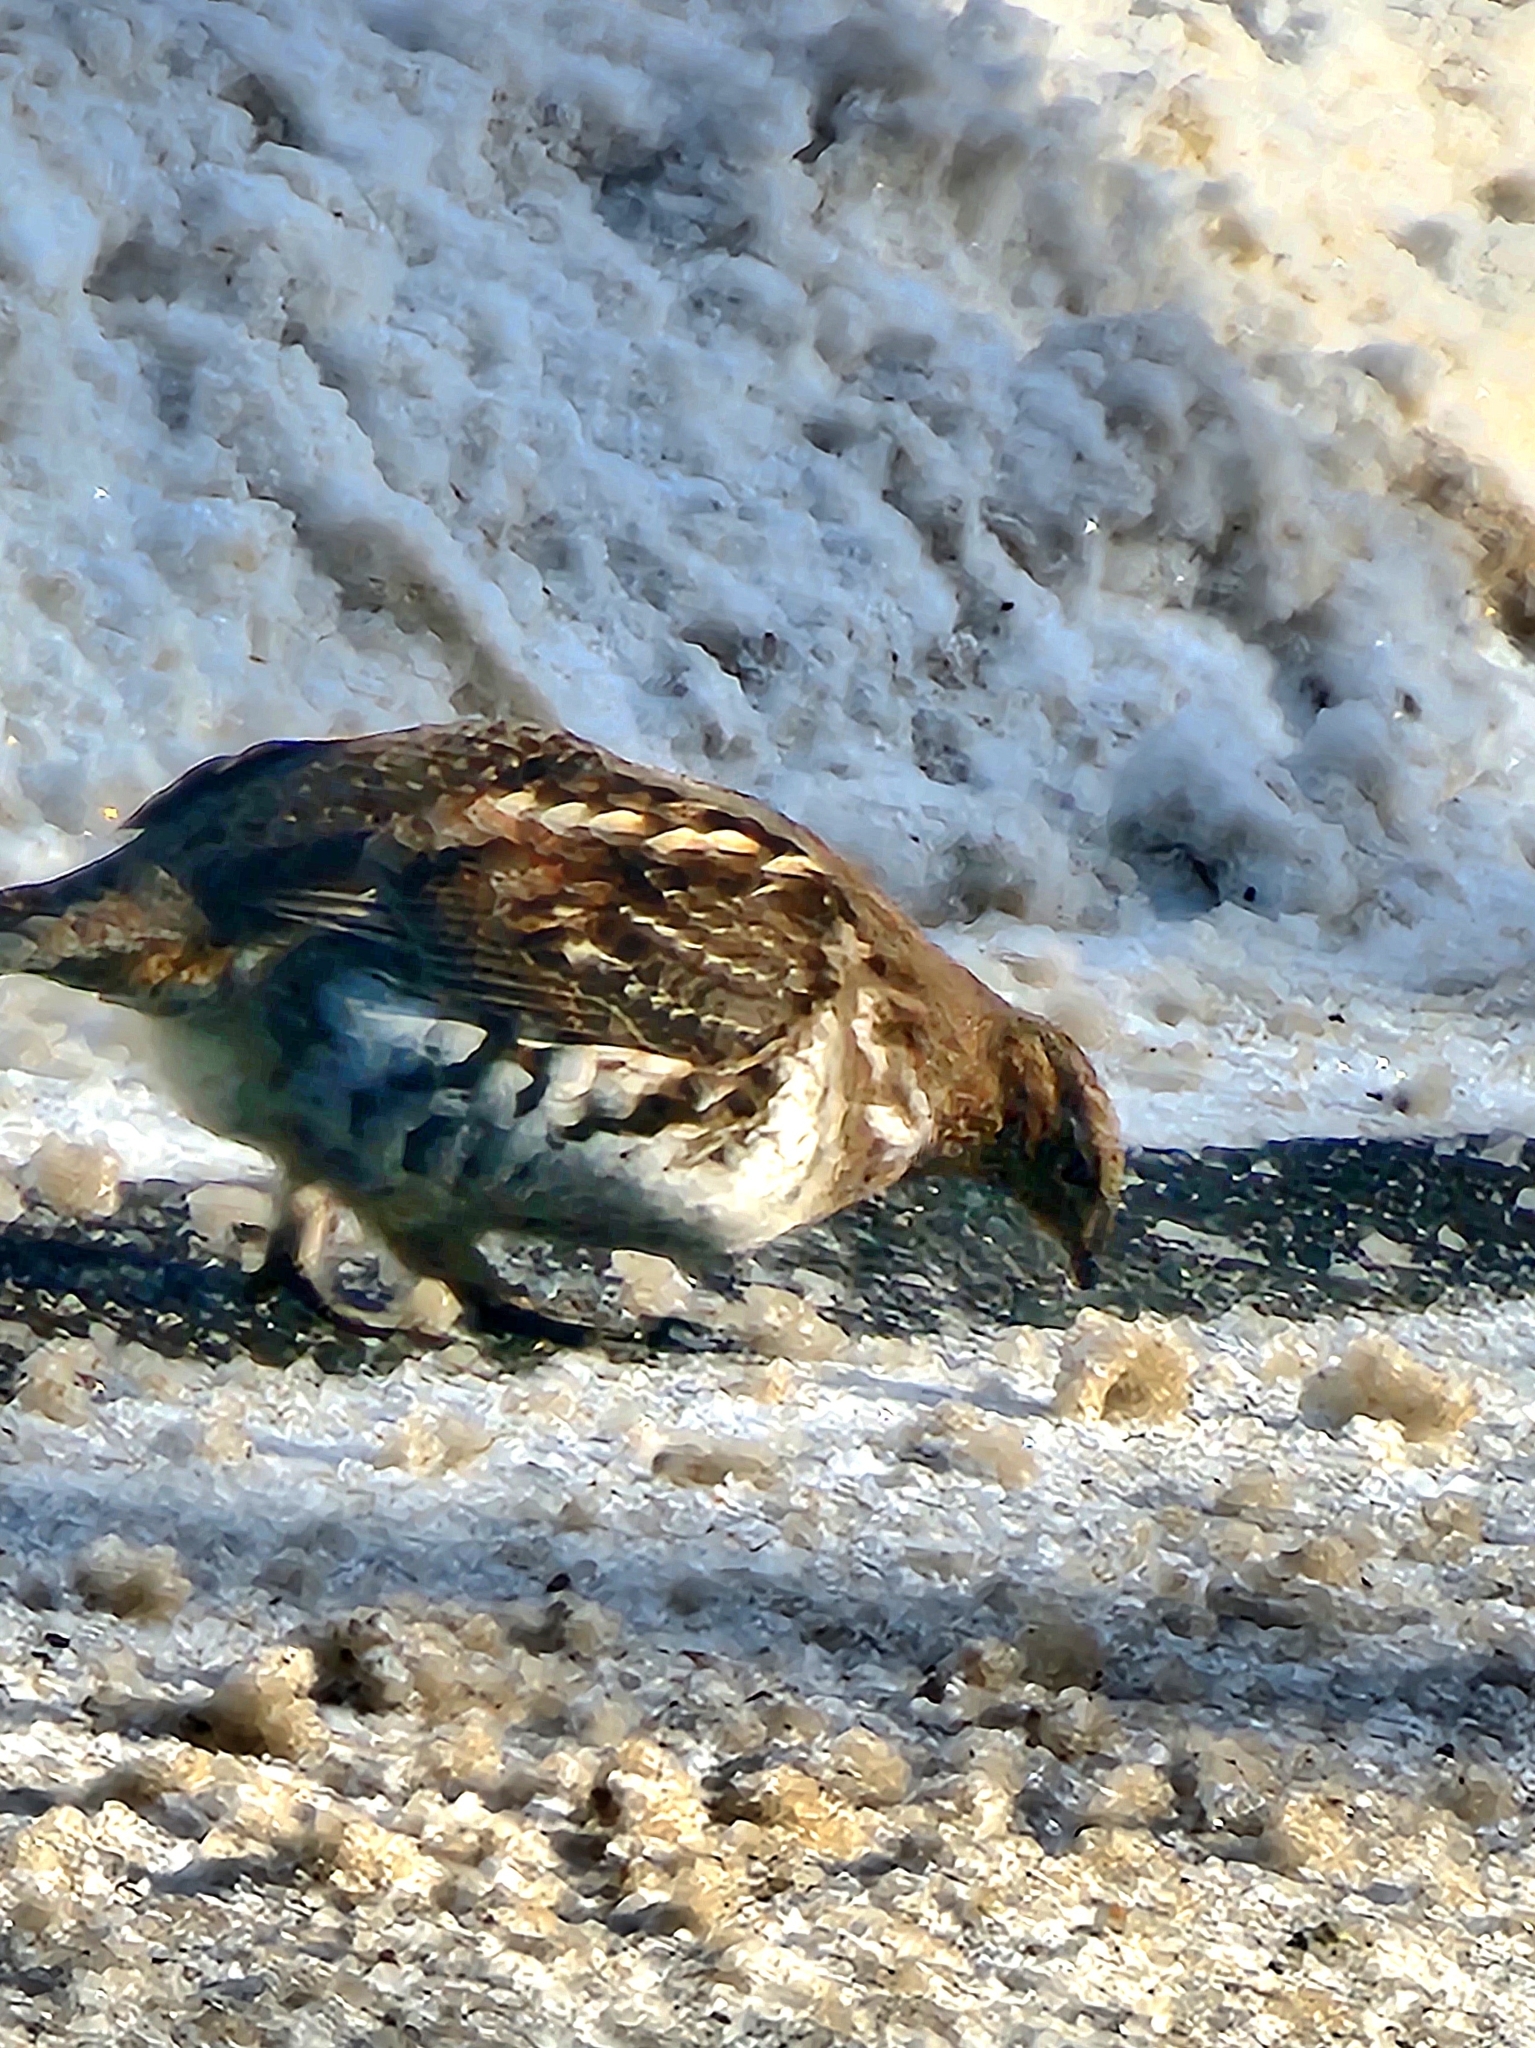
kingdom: Animalia
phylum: Chordata
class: Aves
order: Galliformes
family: Phasianidae
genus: Bonasa
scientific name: Bonasa umbellus
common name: Ruffed grouse
